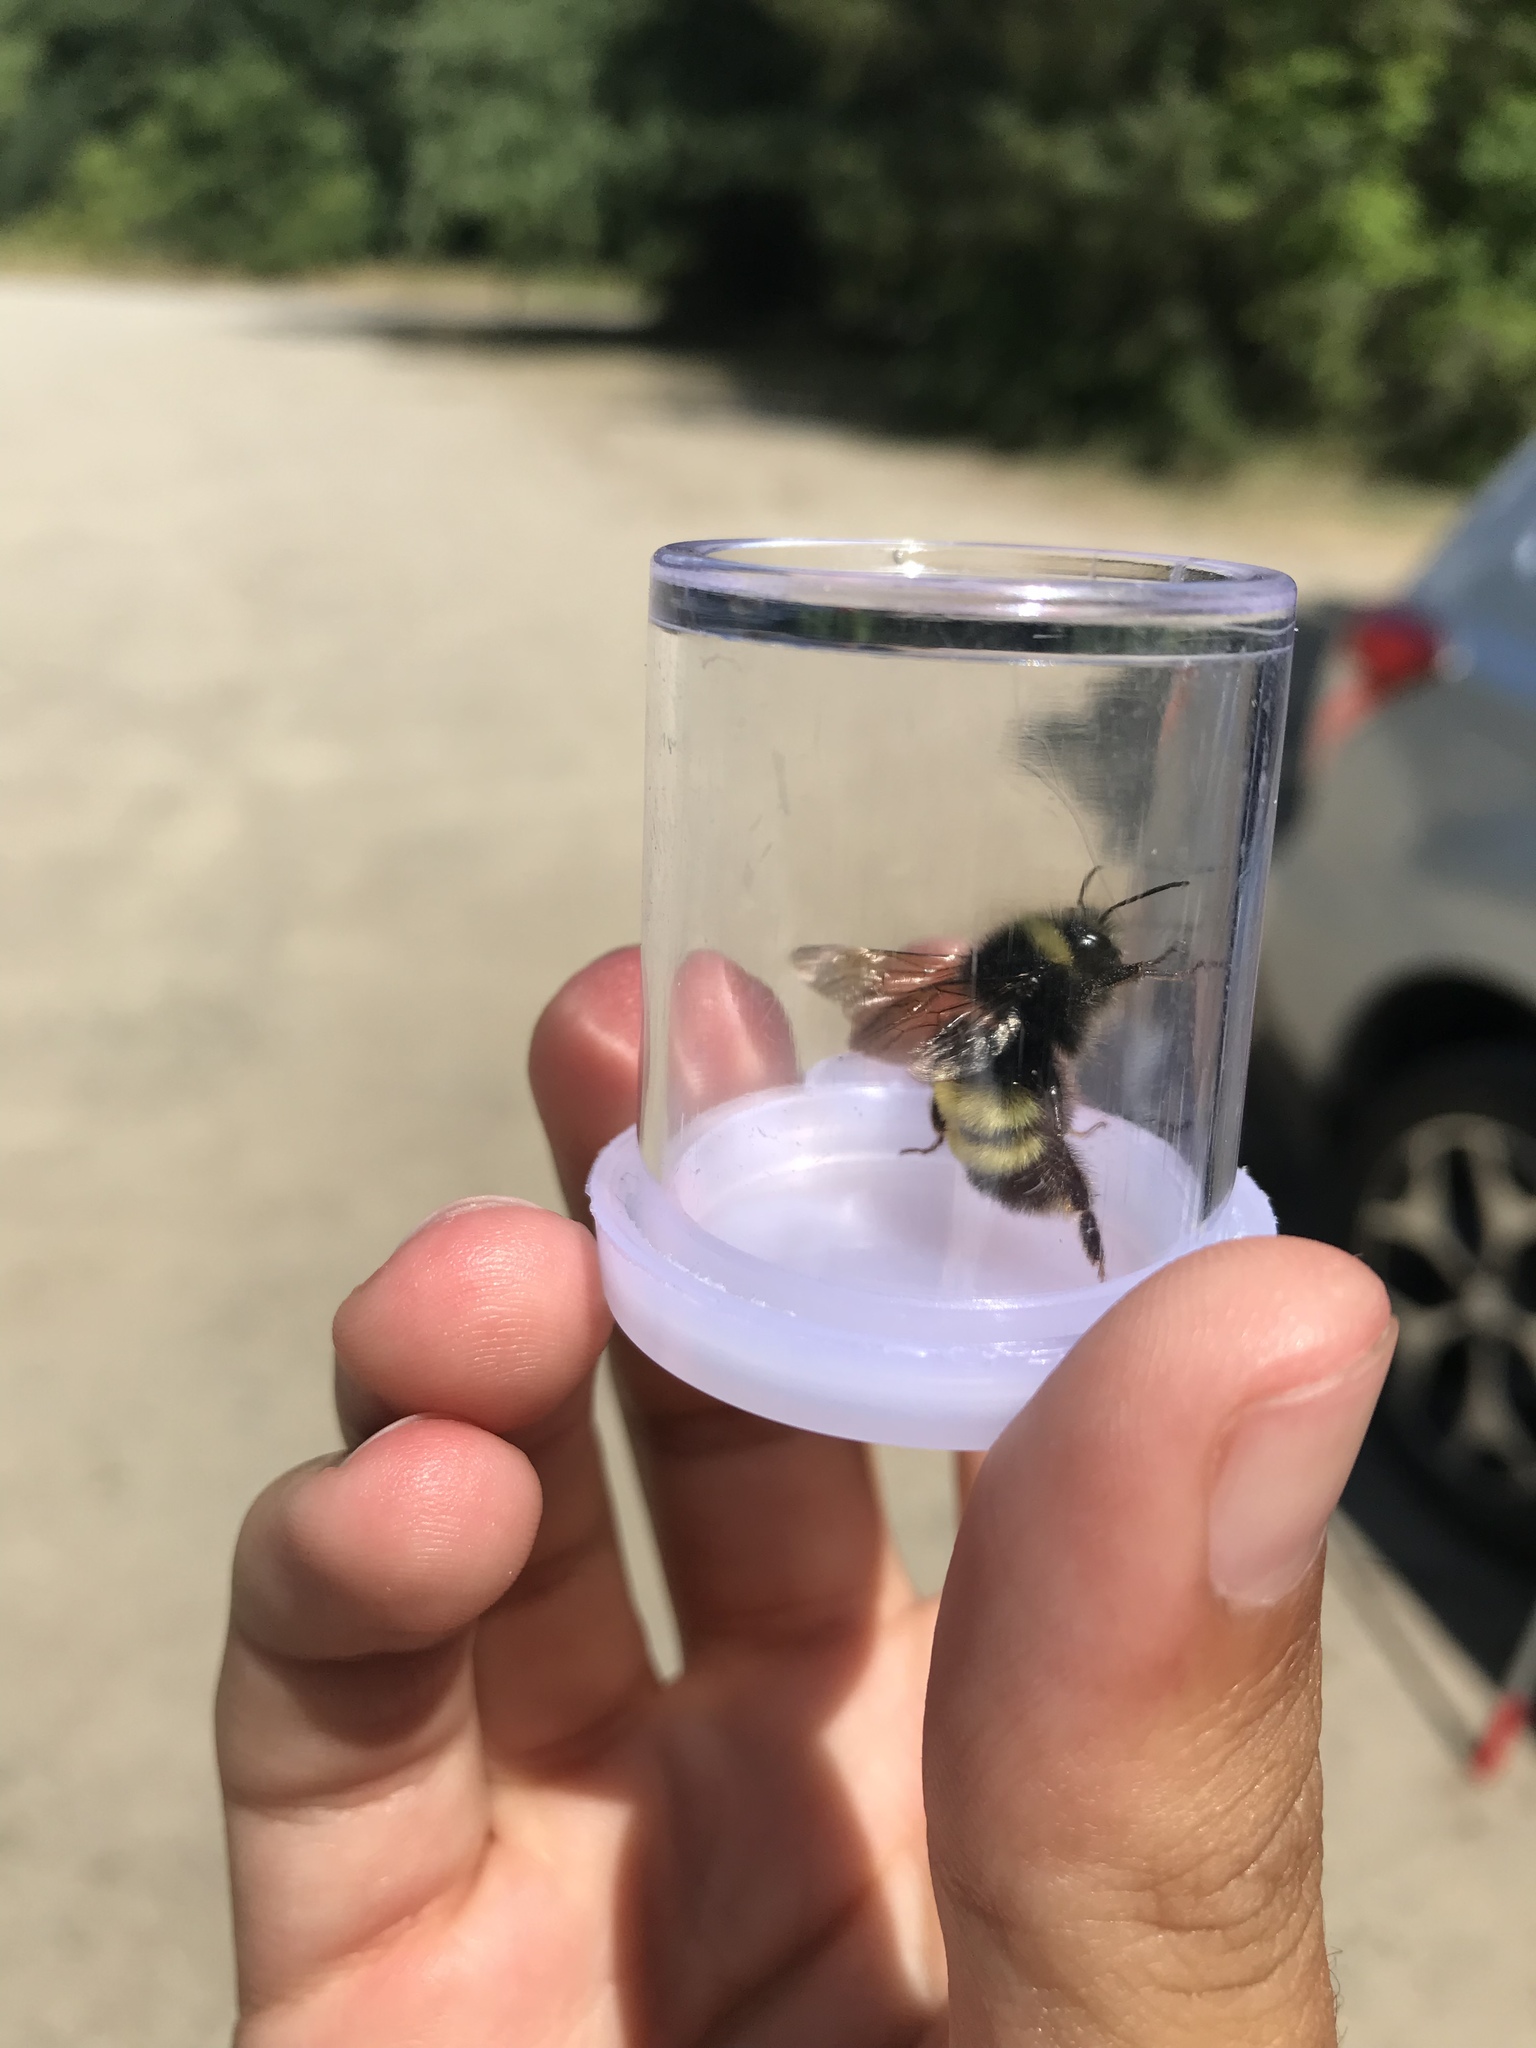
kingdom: Animalia
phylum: Arthropoda
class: Insecta
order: Hymenoptera
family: Apidae
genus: Bombus
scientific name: Bombus terricola
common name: Yellow-banded bumble bee
